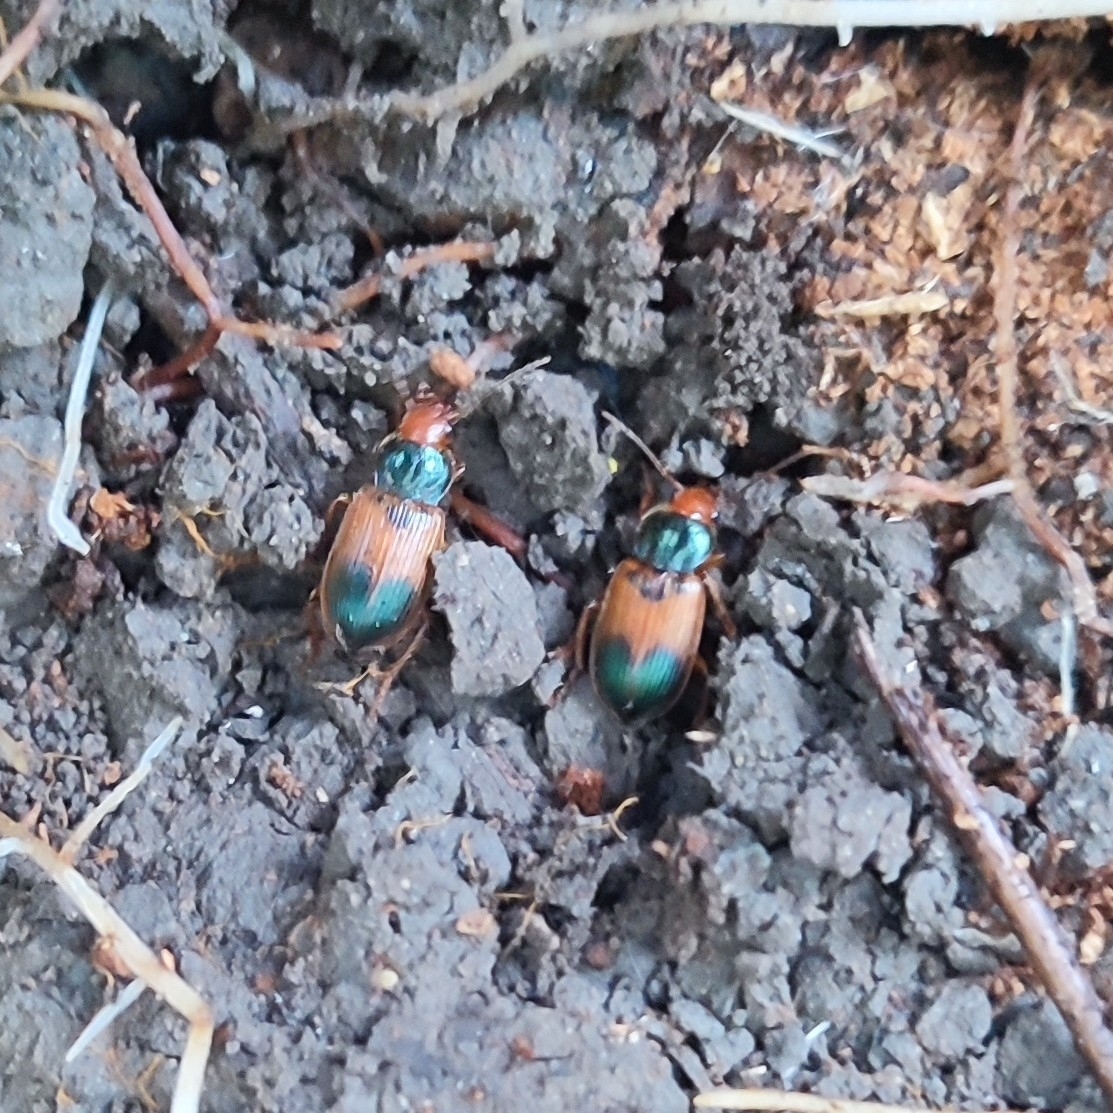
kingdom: Animalia
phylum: Arthropoda
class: Insecta
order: Coleoptera
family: Carabidae
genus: Diachromus
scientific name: Diachromus germanus
